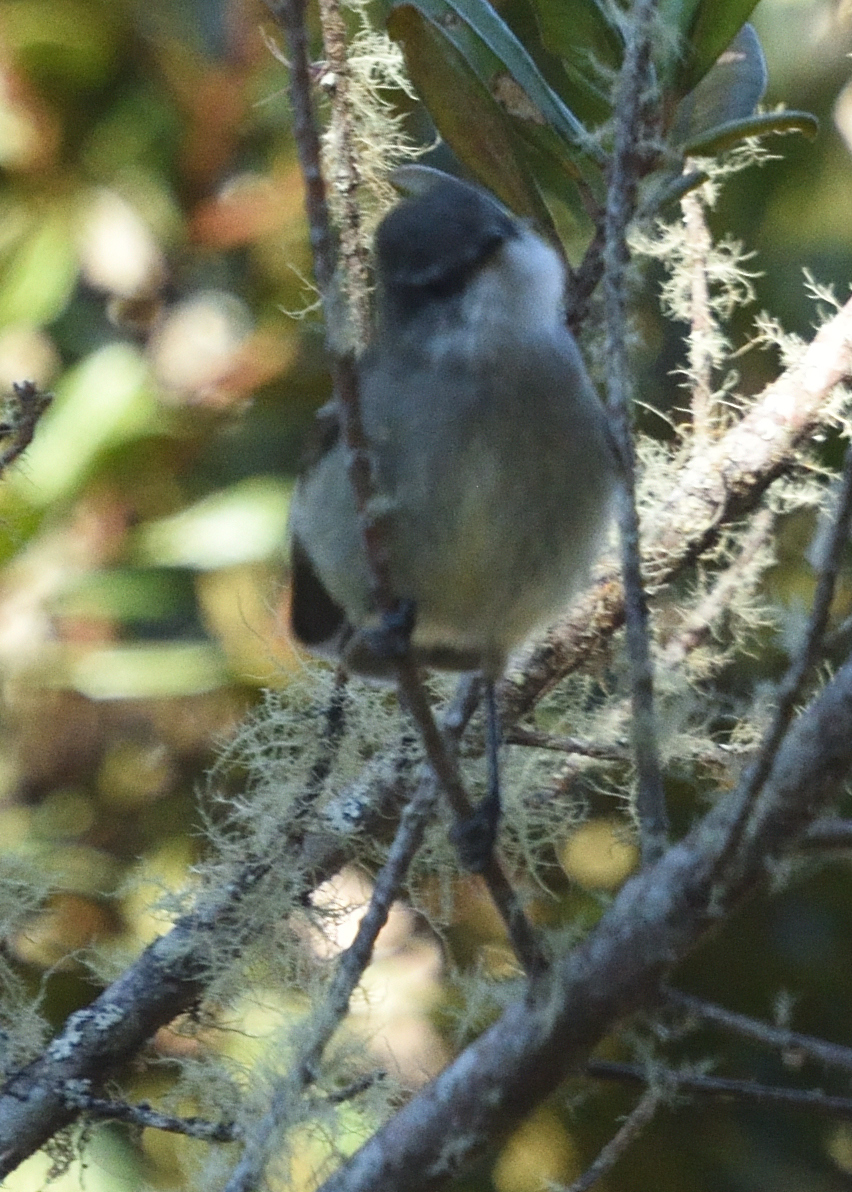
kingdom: Animalia
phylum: Chordata
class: Aves
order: Passeriformes
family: Tyrannidae
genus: Mecocerculus
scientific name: Mecocerculus leucophrys
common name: White-throated tyrannulet
